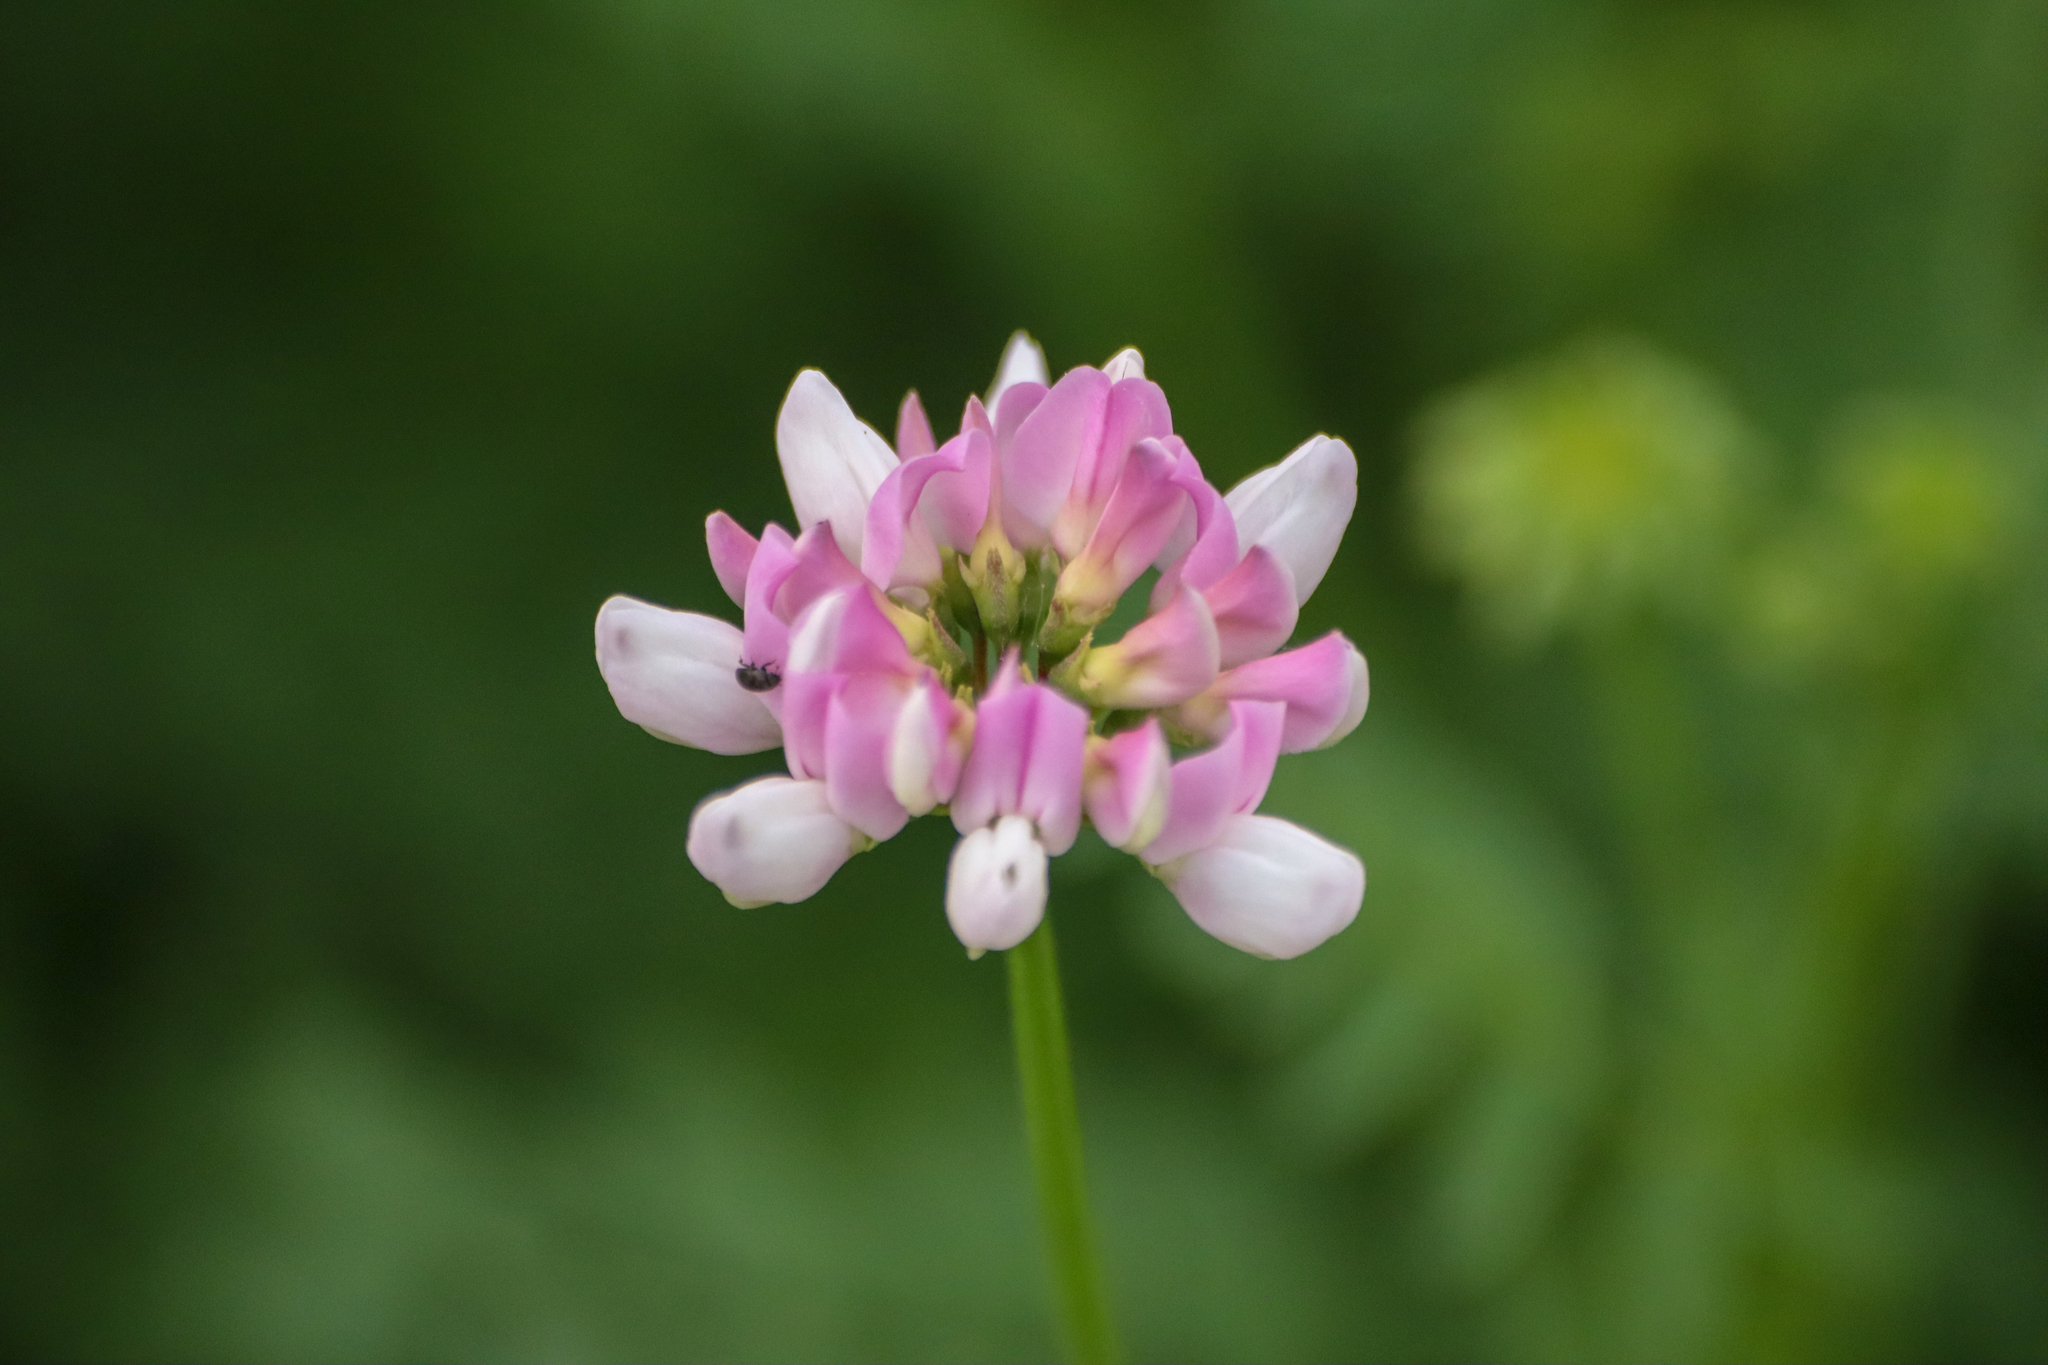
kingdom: Plantae
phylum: Tracheophyta
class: Magnoliopsida
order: Fabales
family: Fabaceae
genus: Coronilla
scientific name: Coronilla varia
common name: Crownvetch
